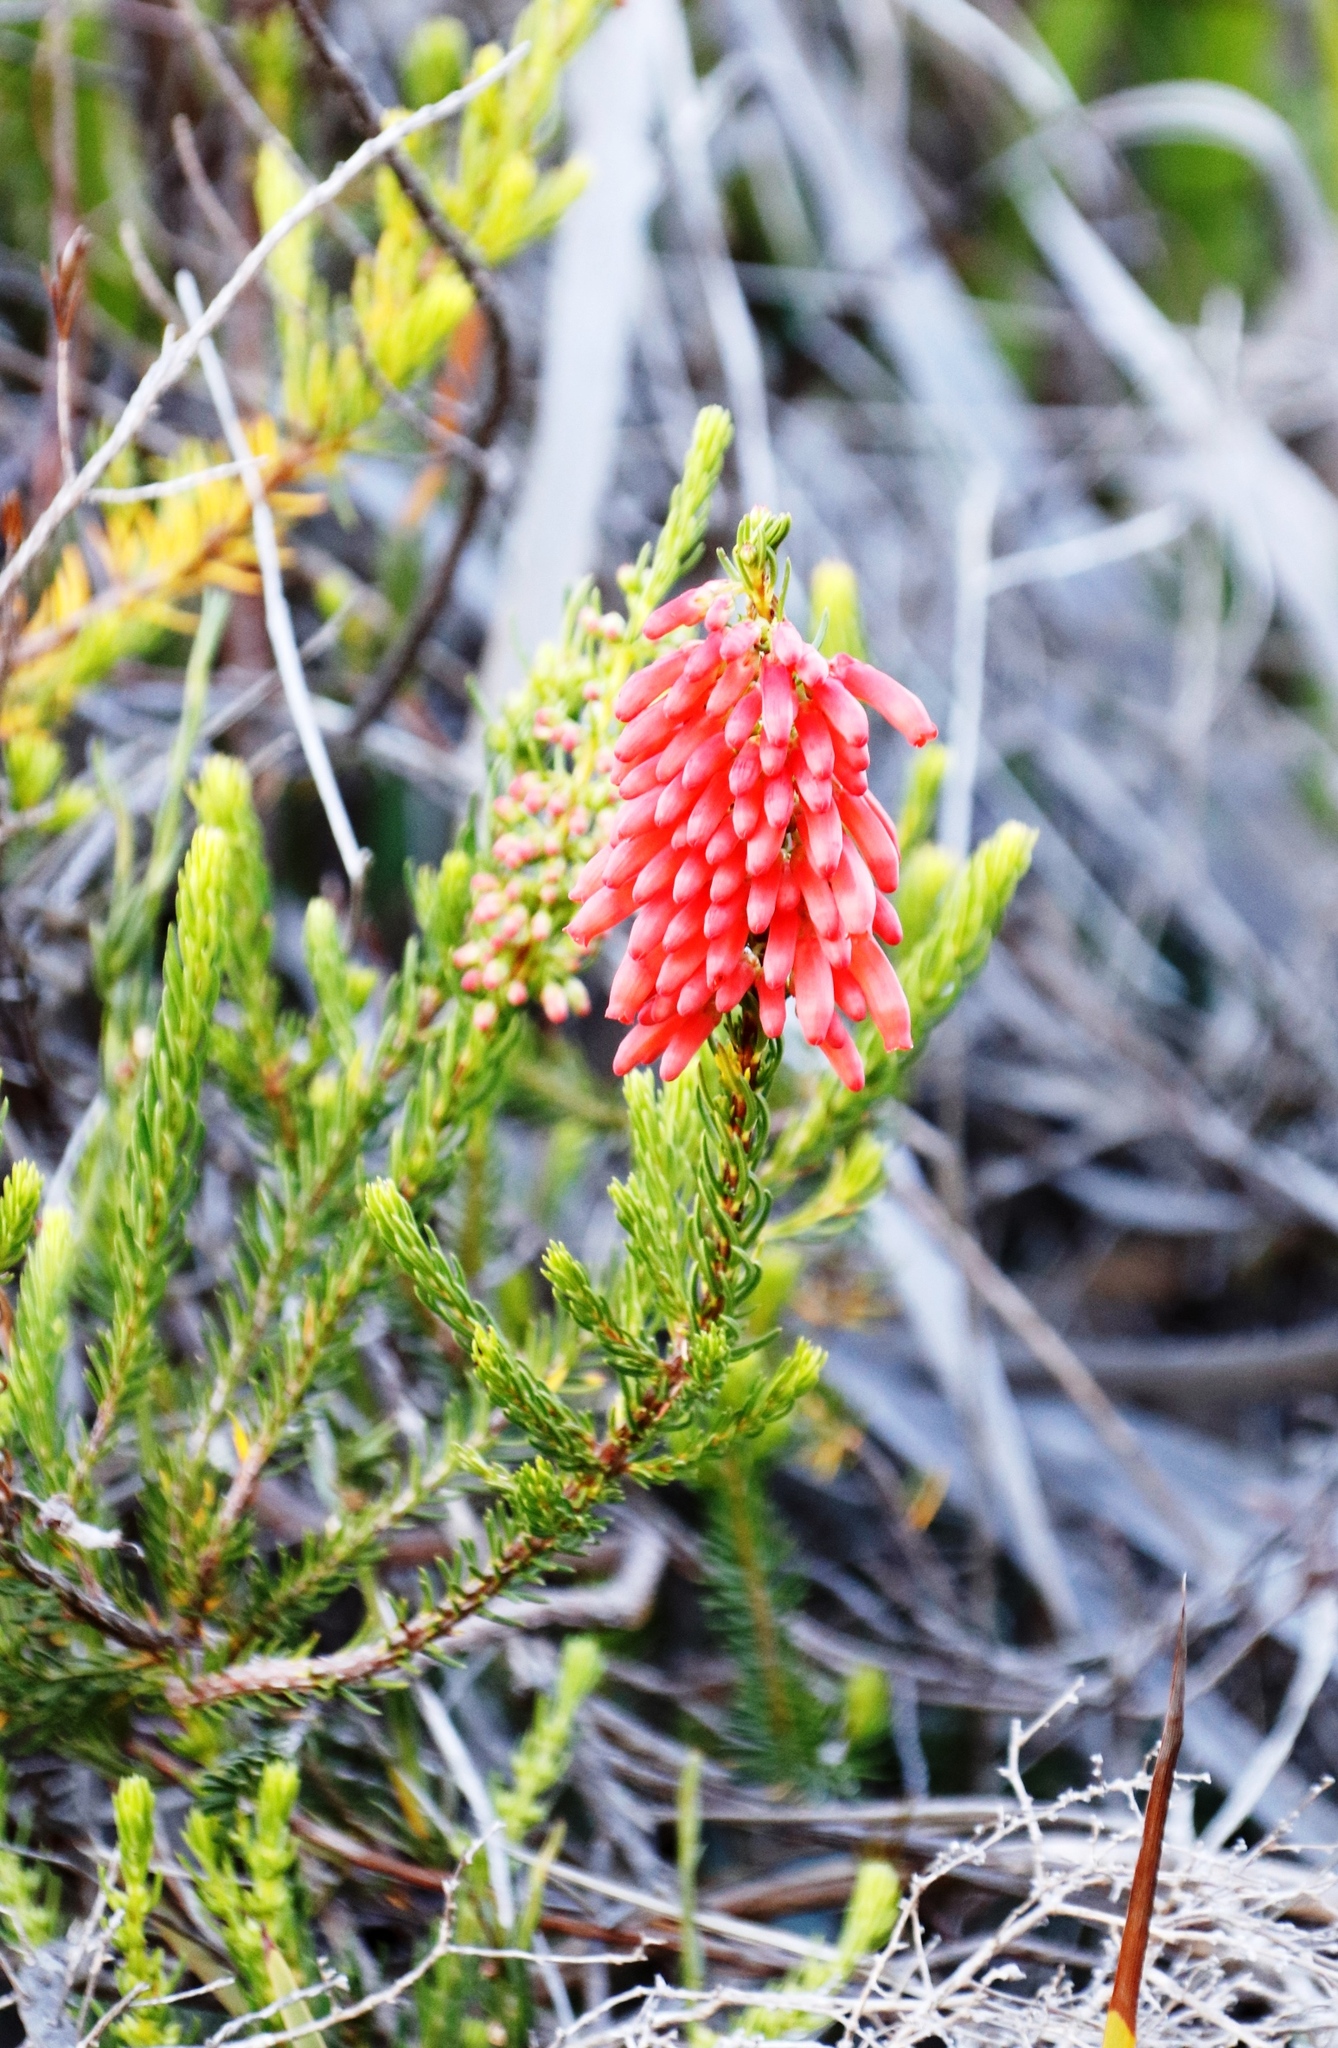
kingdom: Plantae
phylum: Tracheophyta
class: Magnoliopsida
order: Ericales
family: Ericaceae
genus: Erica
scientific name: Erica mammosa
